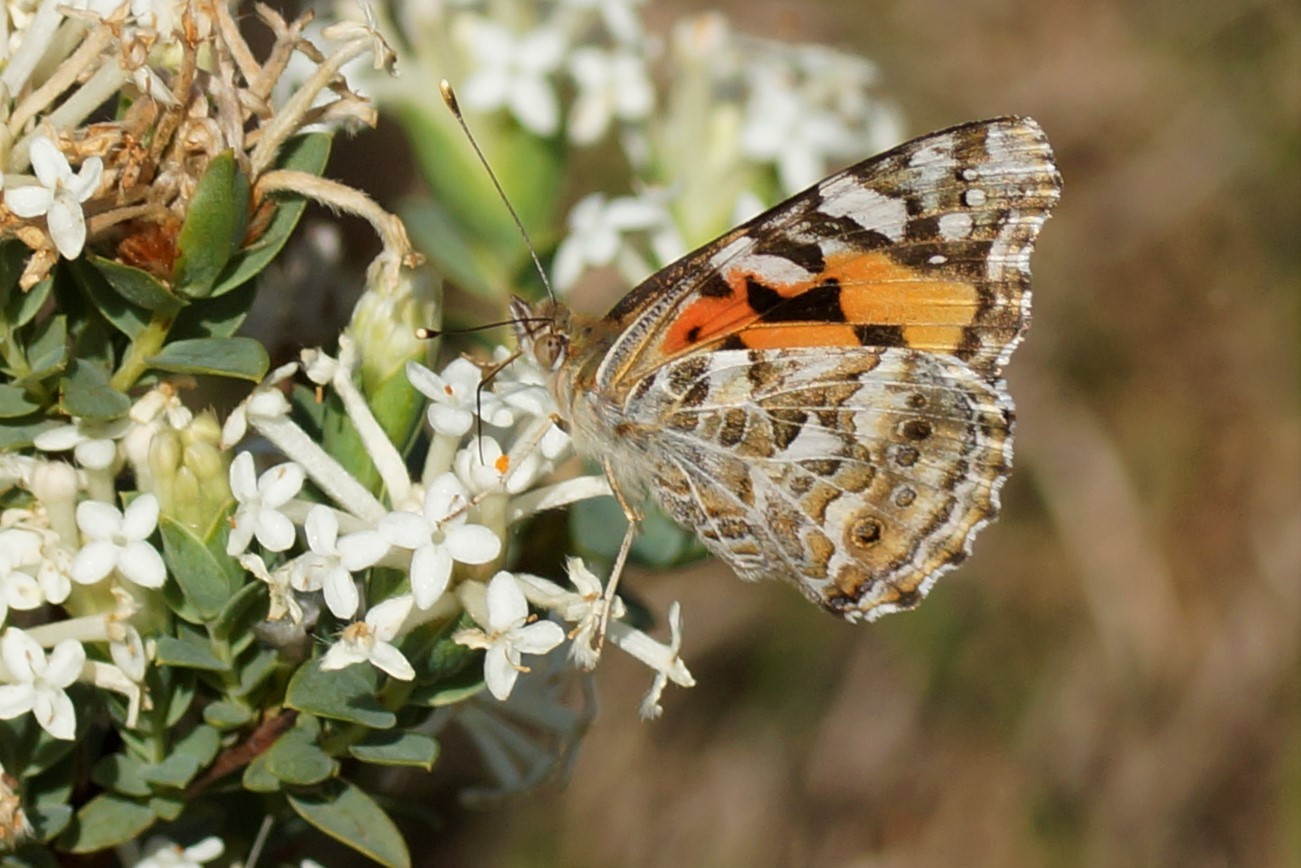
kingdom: Animalia
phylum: Arthropoda
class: Insecta
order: Lepidoptera
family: Nymphalidae
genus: Vanessa
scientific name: Vanessa kershawi
